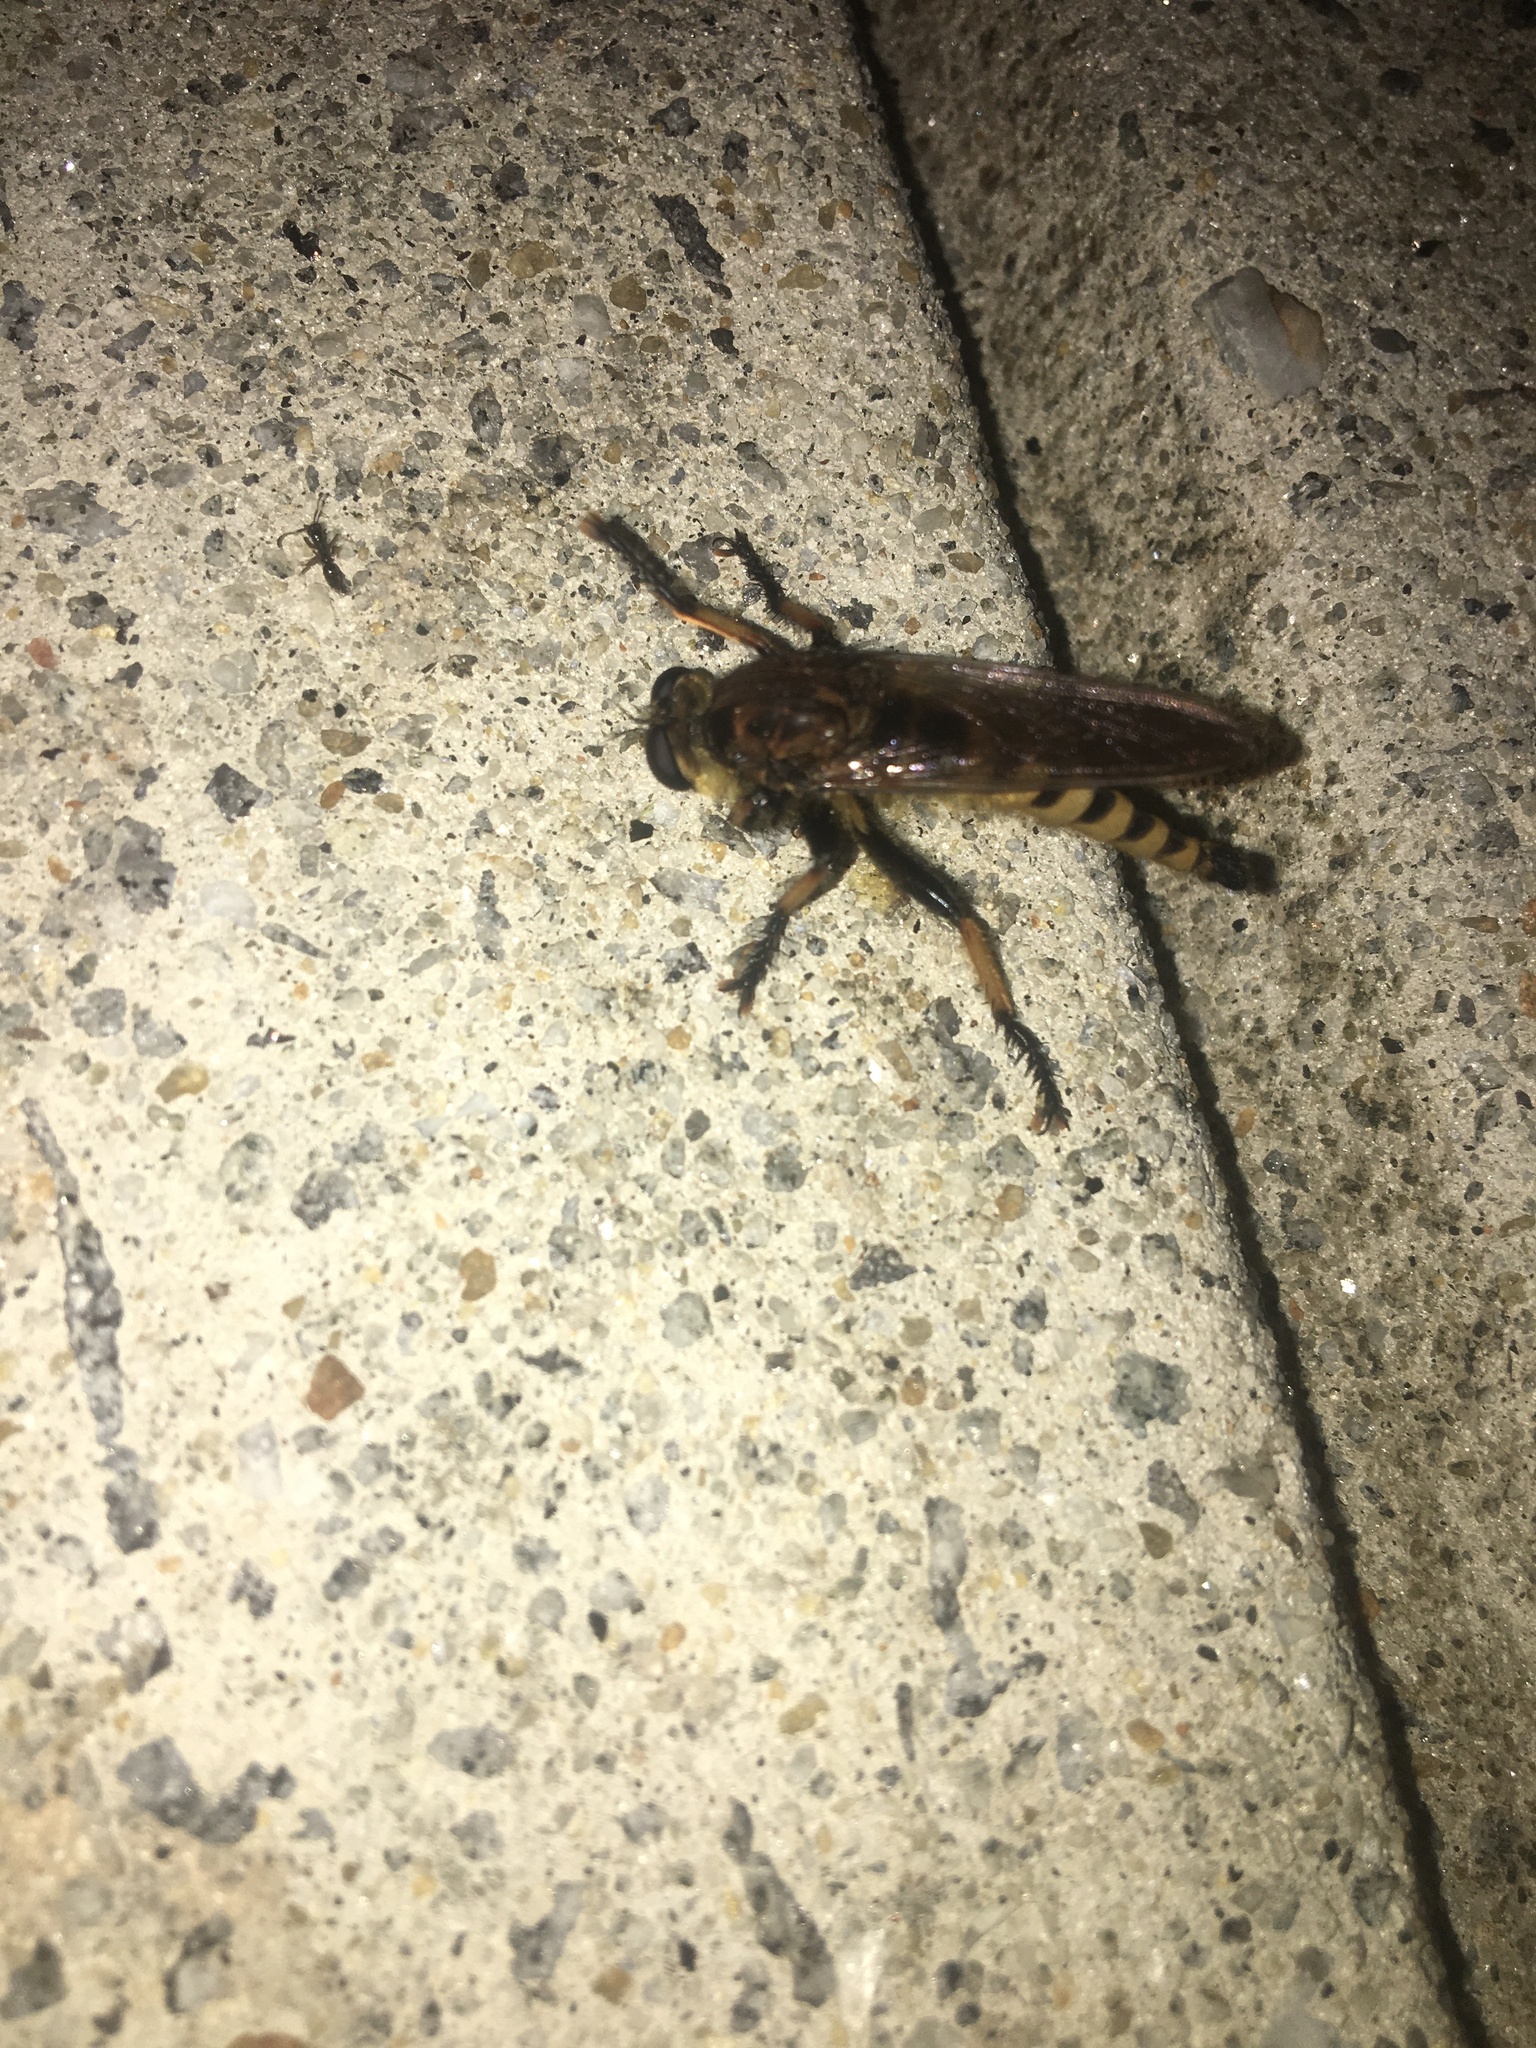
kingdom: Animalia
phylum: Arthropoda
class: Insecta
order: Diptera
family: Asilidae
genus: Promachus
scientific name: Promachus rufipes
